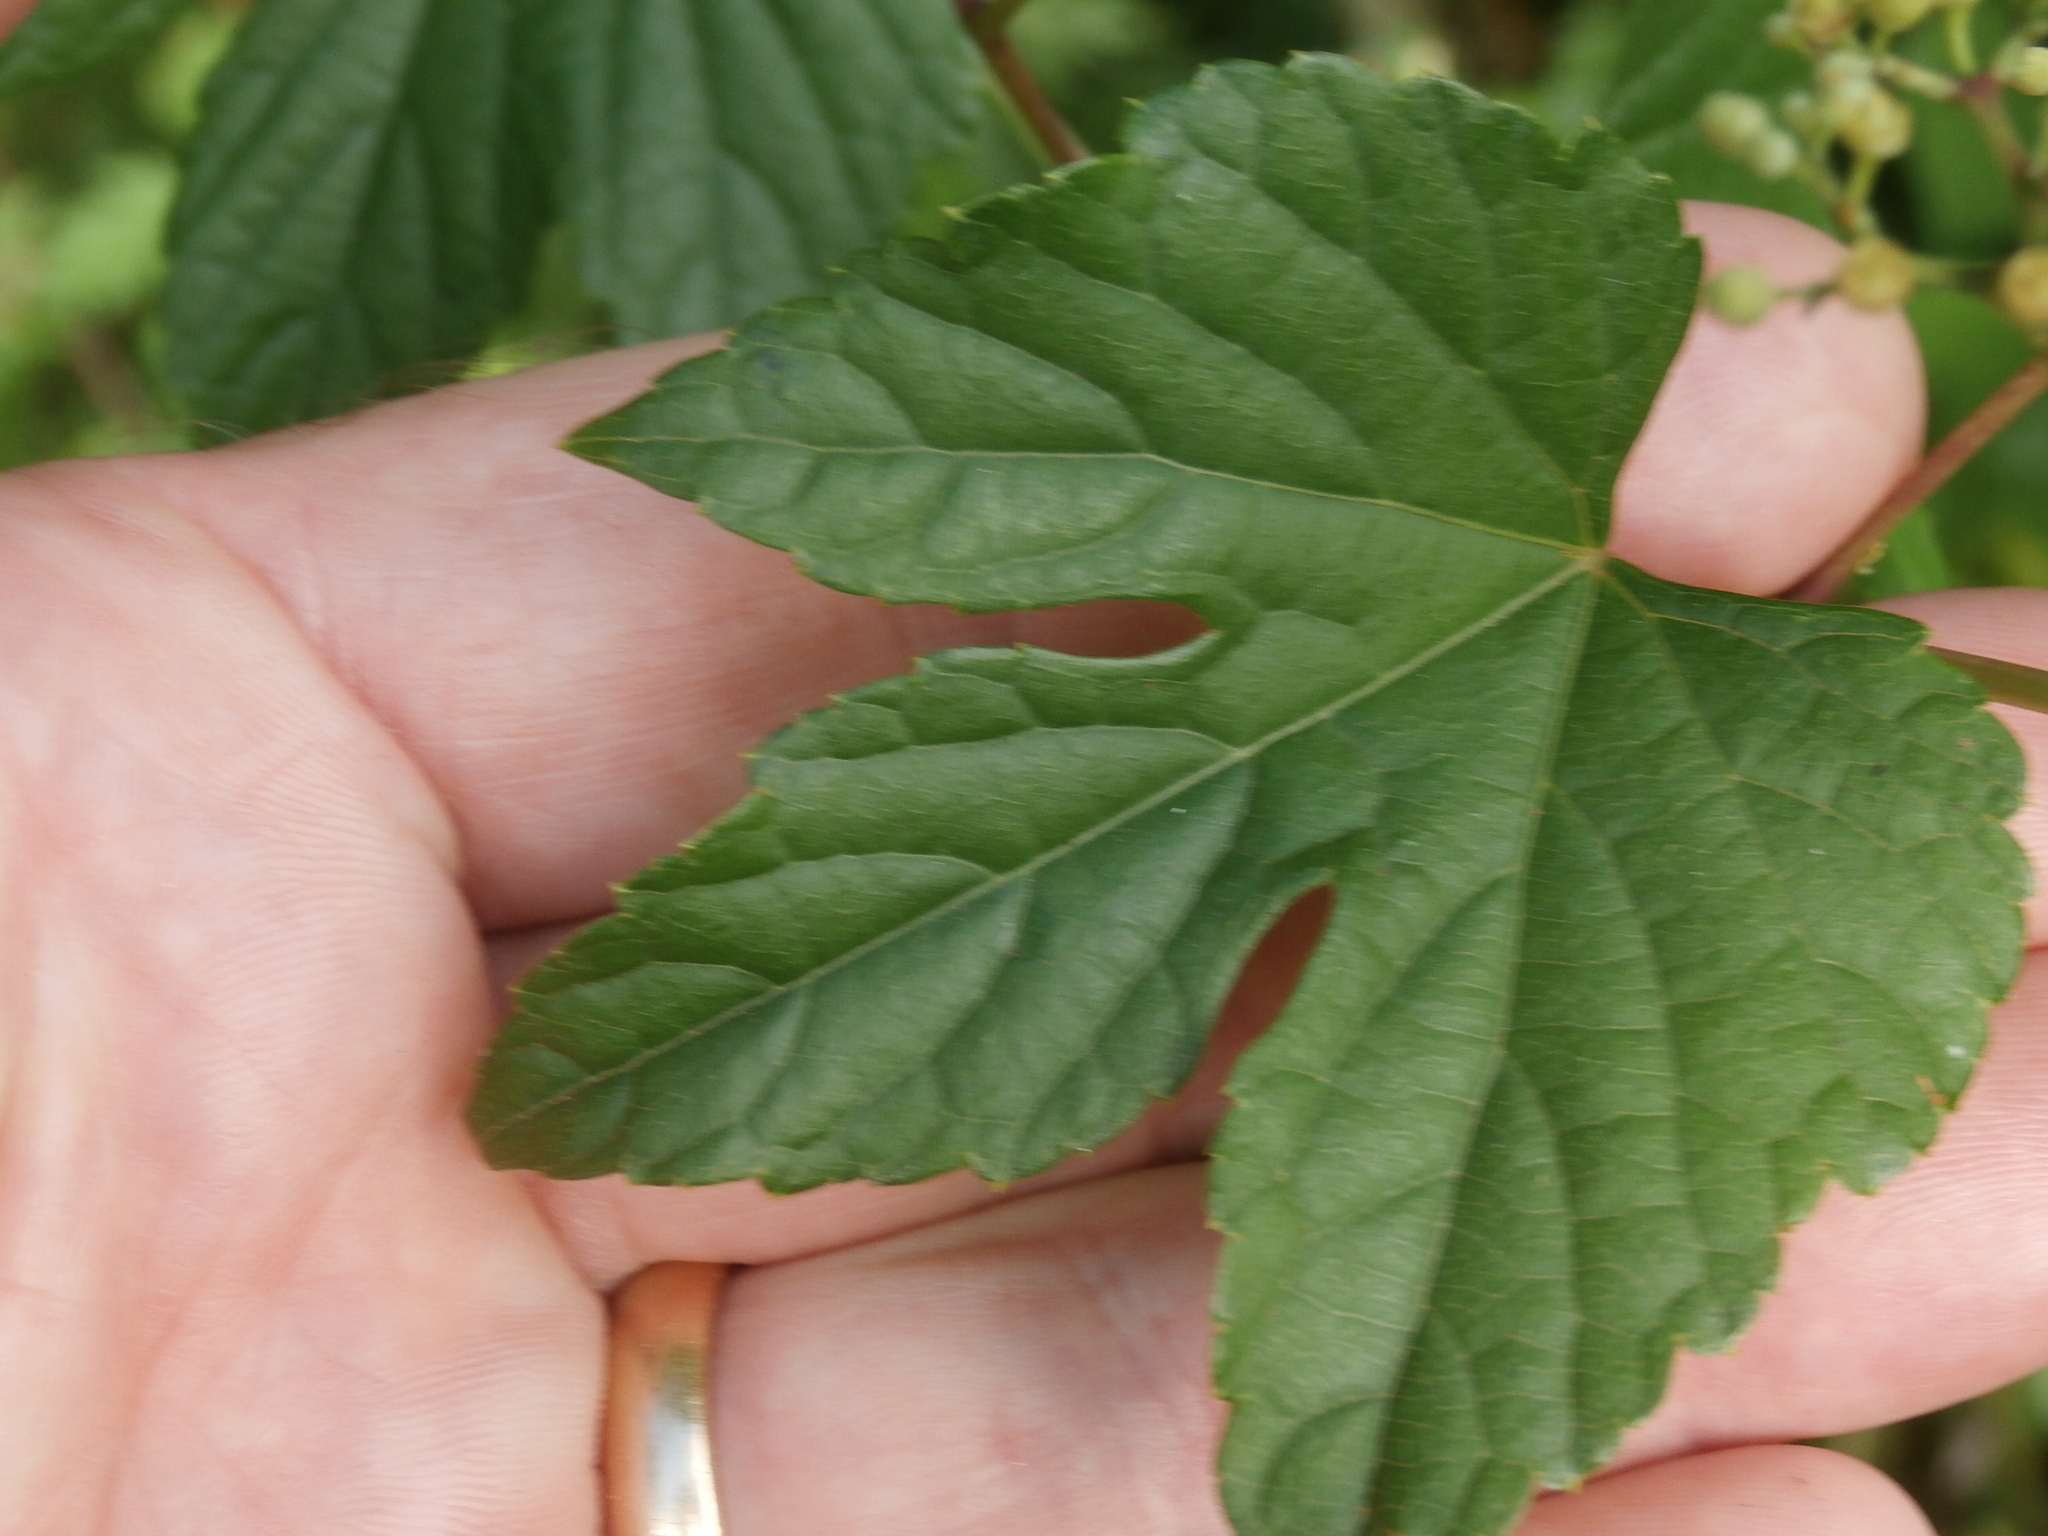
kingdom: Plantae
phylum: Tracheophyta
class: Magnoliopsida
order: Vitales
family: Vitaceae
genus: Ampelopsis
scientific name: Ampelopsis glandulosa
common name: Amur peppervine
